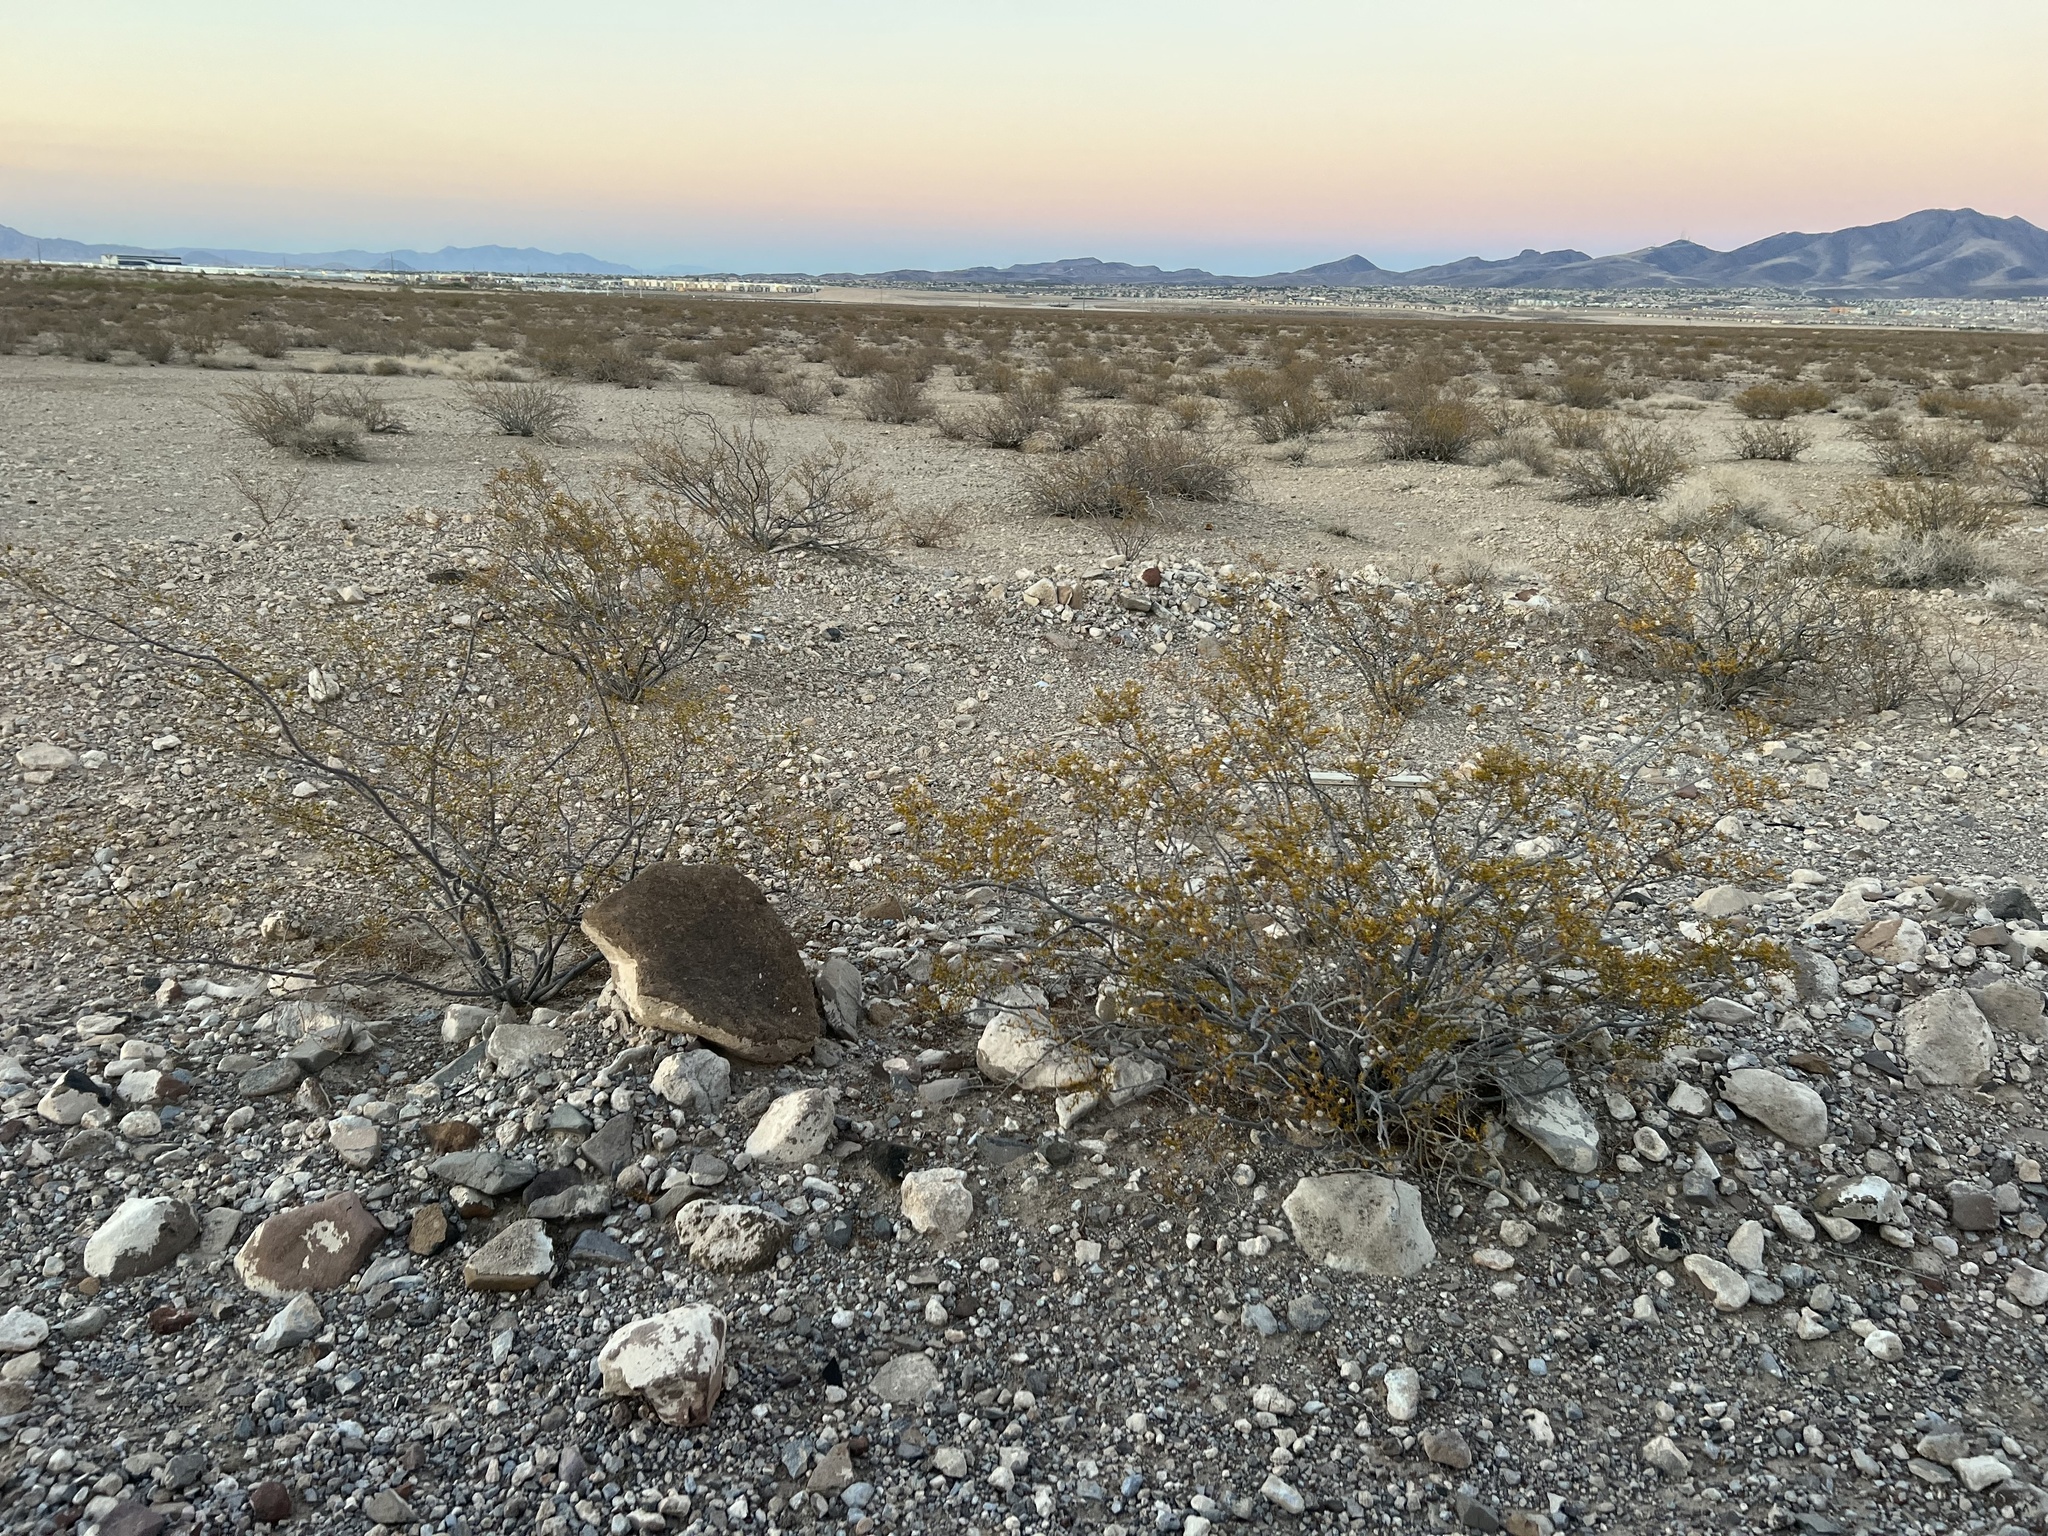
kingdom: Plantae
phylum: Tracheophyta
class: Magnoliopsida
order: Zygophyllales
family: Zygophyllaceae
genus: Larrea
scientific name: Larrea tridentata
